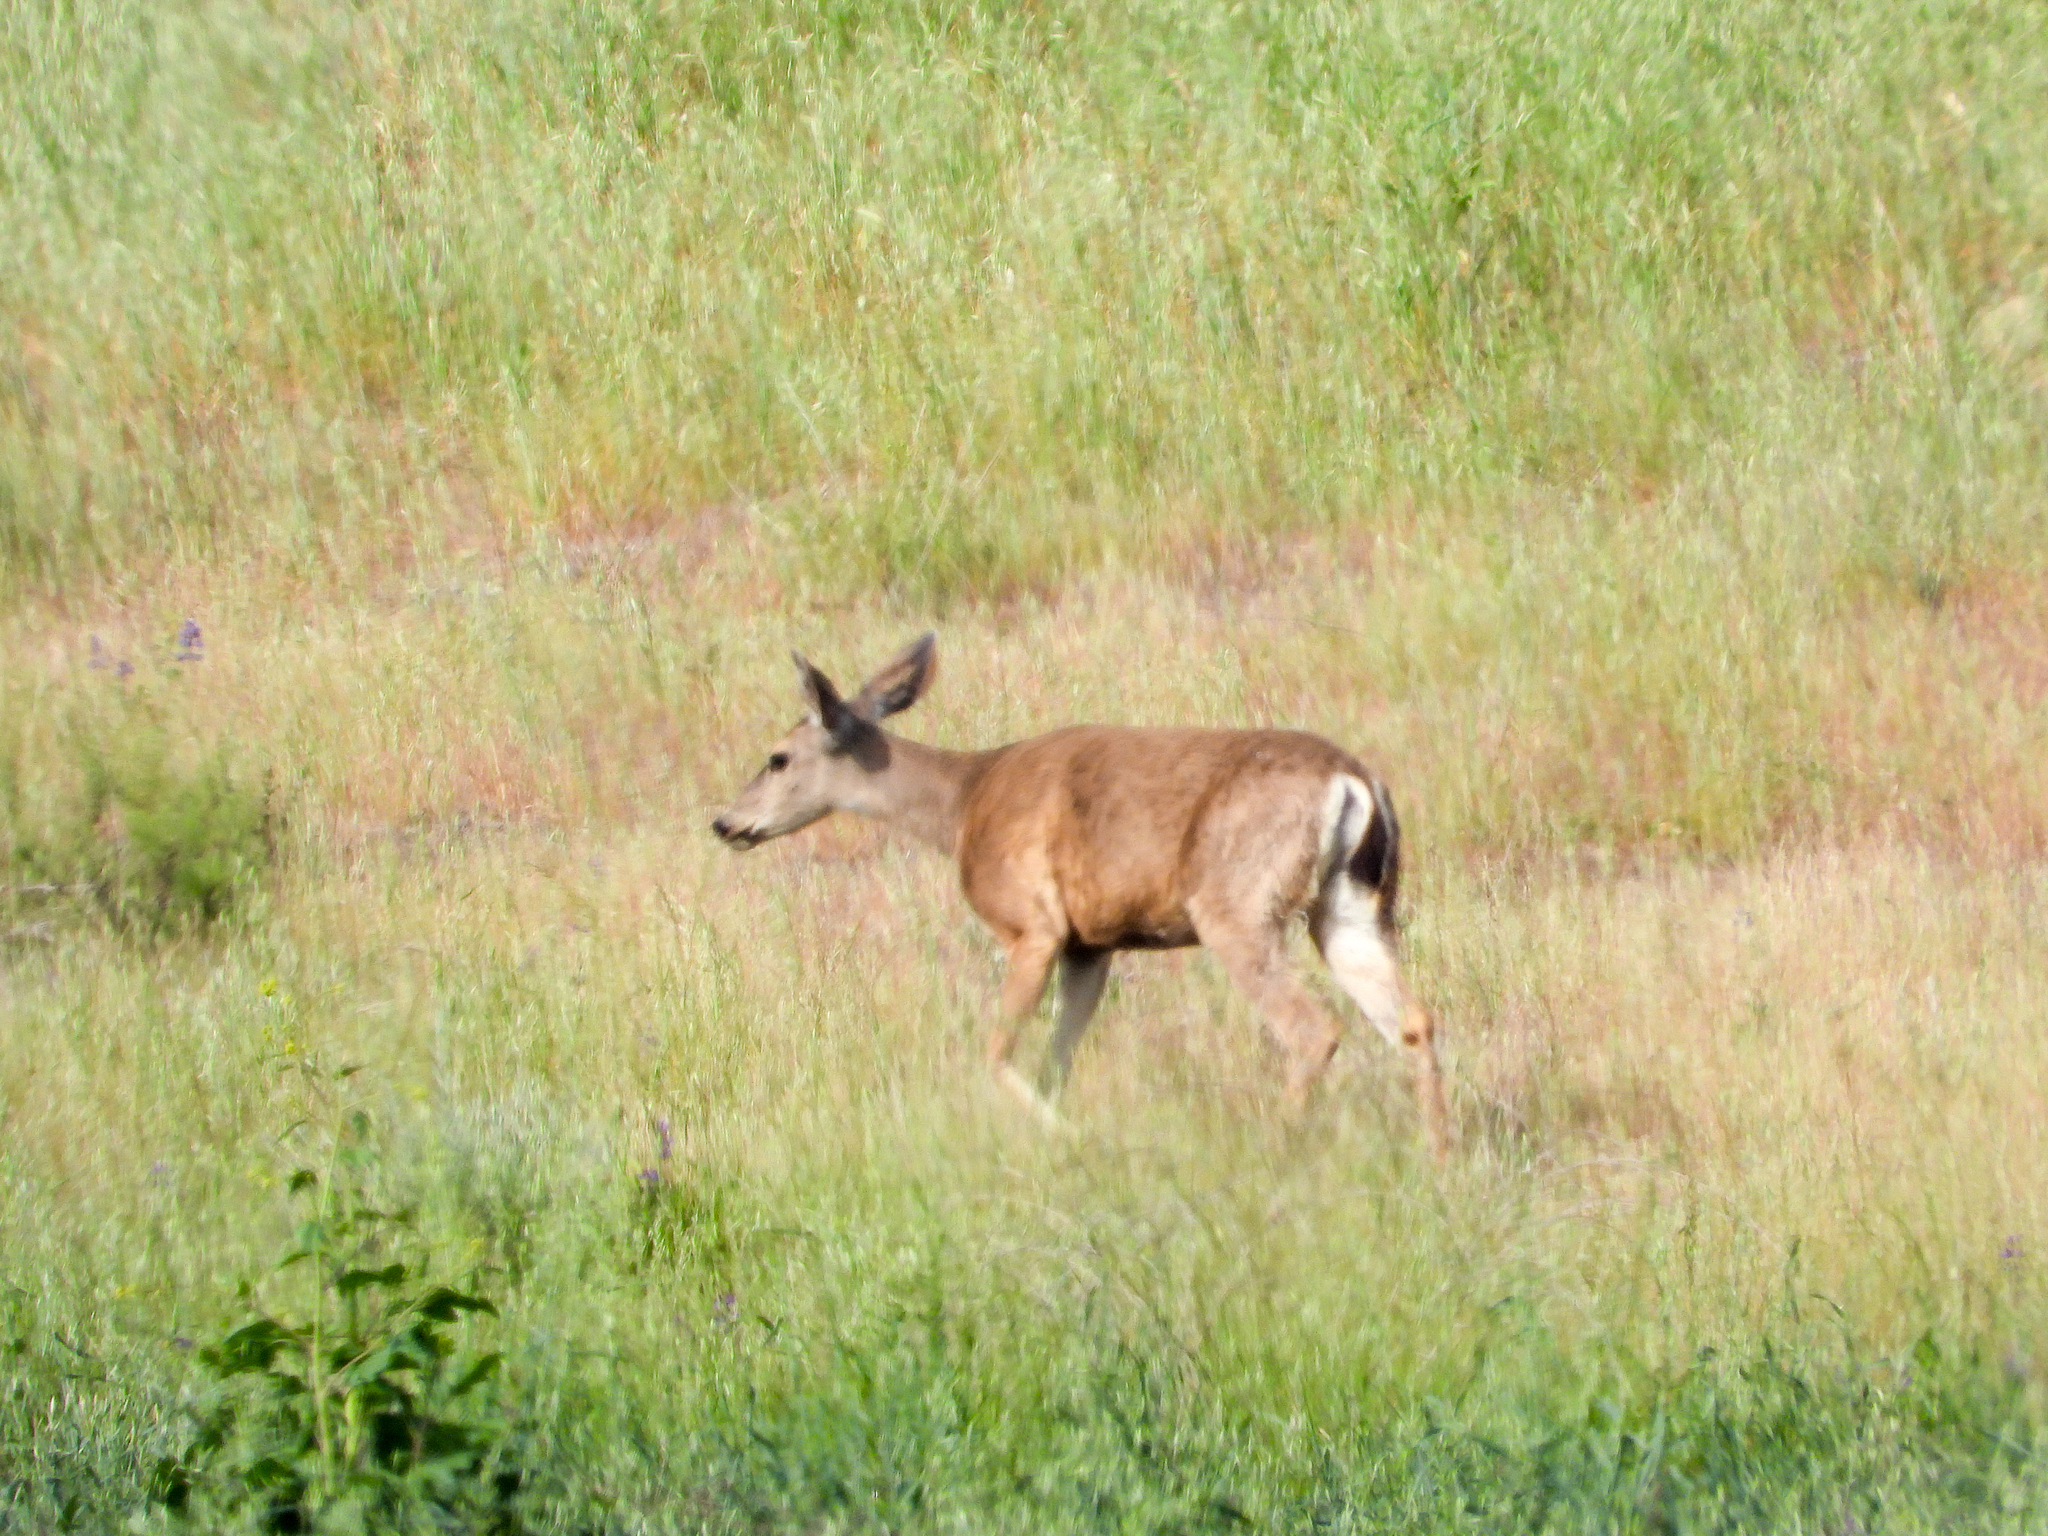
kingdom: Animalia
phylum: Chordata
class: Mammalia
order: Artiodactyla
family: Cervidae
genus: Odocoileus
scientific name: Odocoileus hemionus
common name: Mule deer
